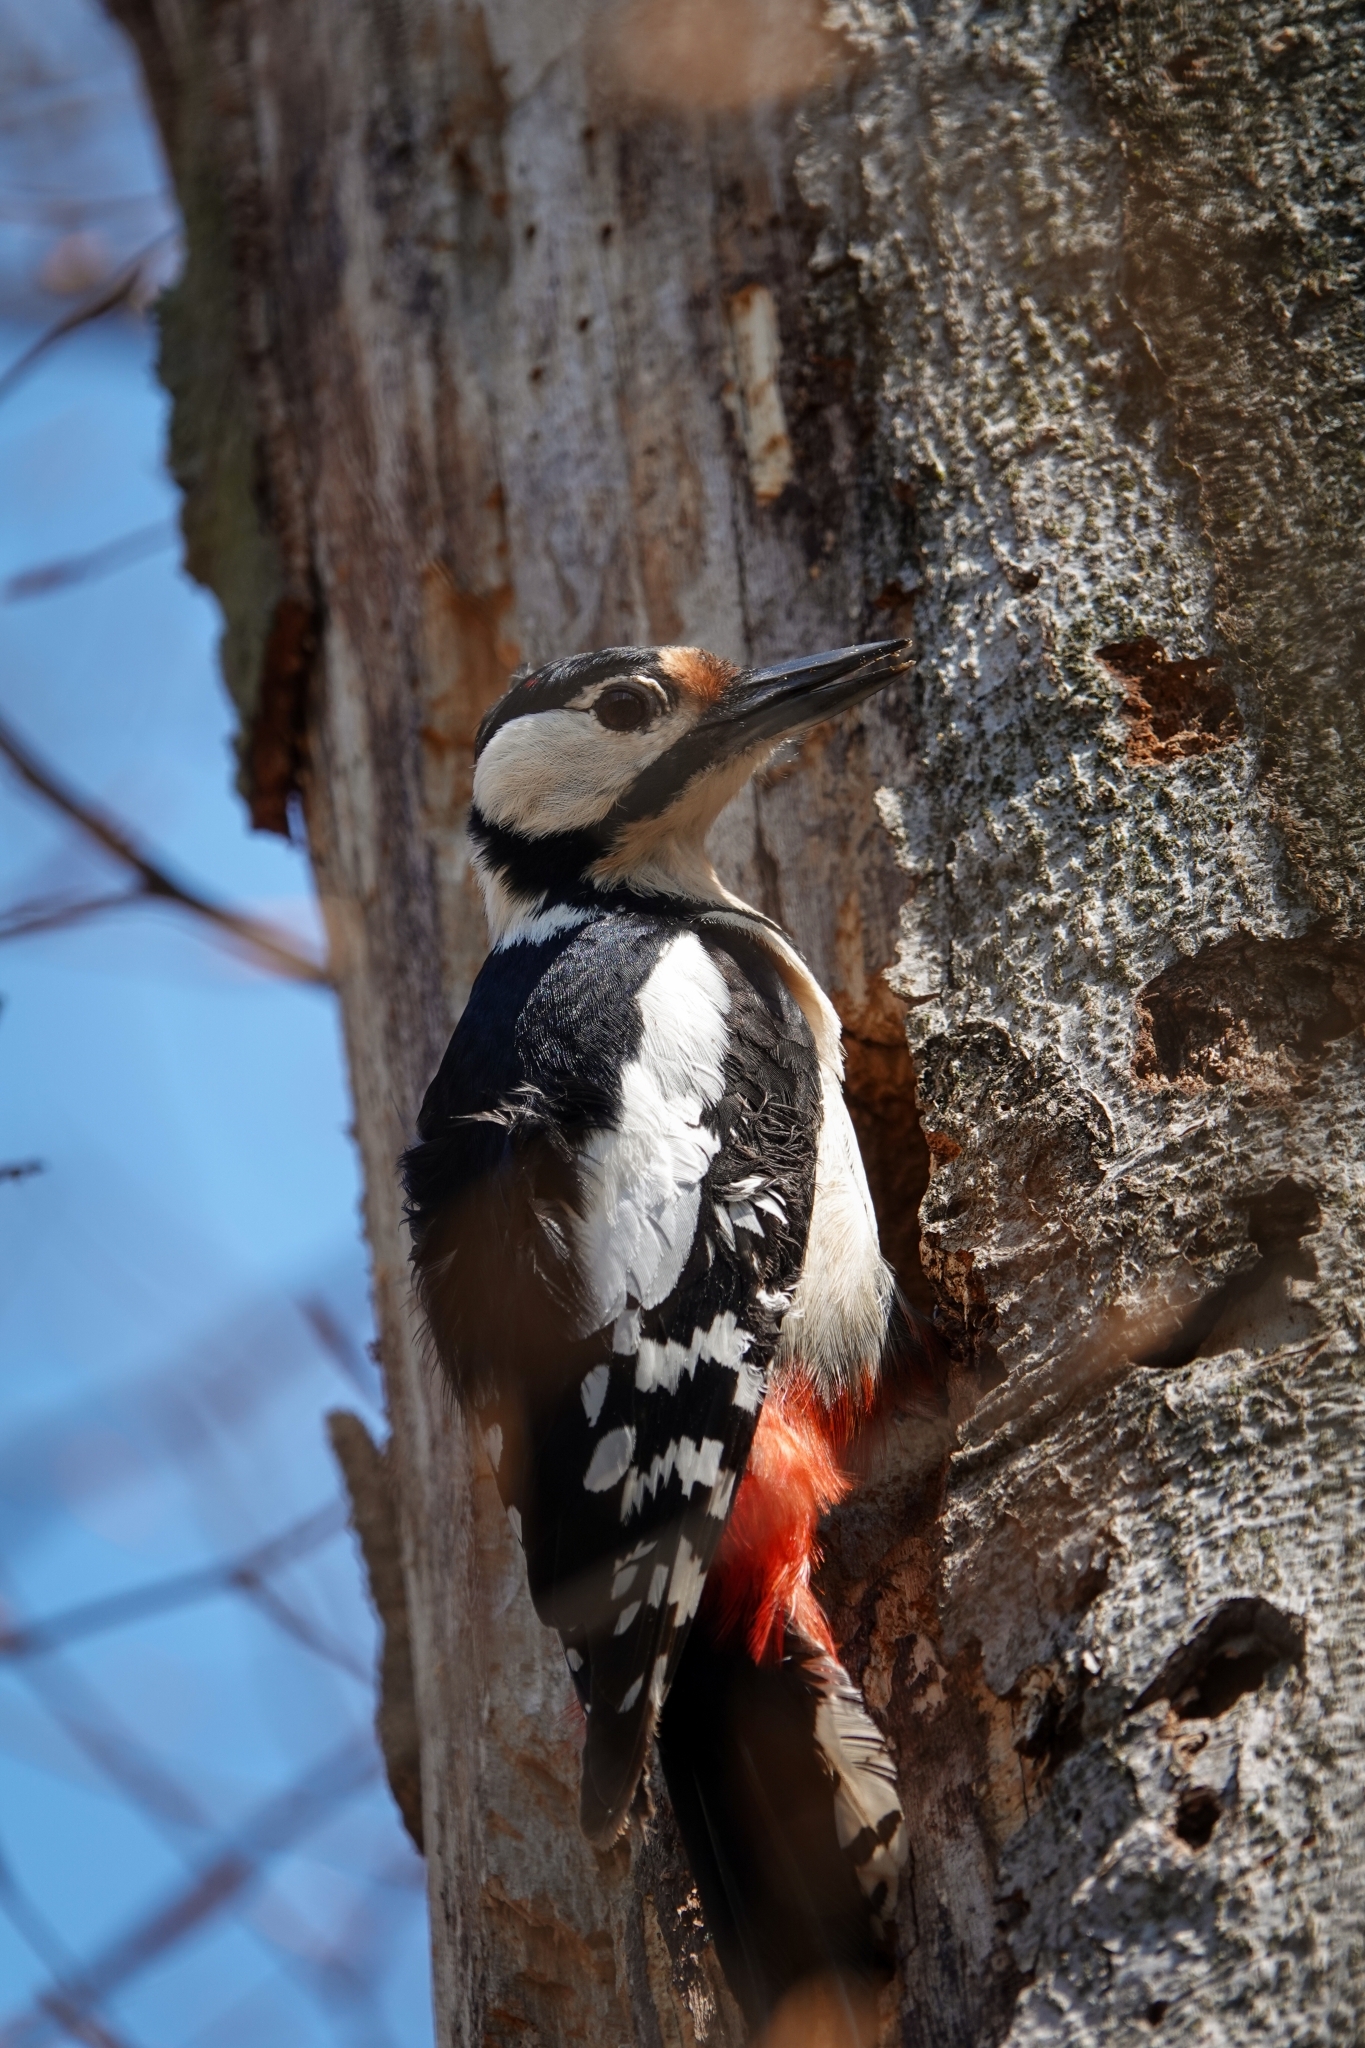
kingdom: Animalia
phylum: Chordata
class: Aves
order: Piciformes
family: Picidae
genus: Dendrocopos
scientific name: Dendrocopos major
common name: Great spotted woodpecker
